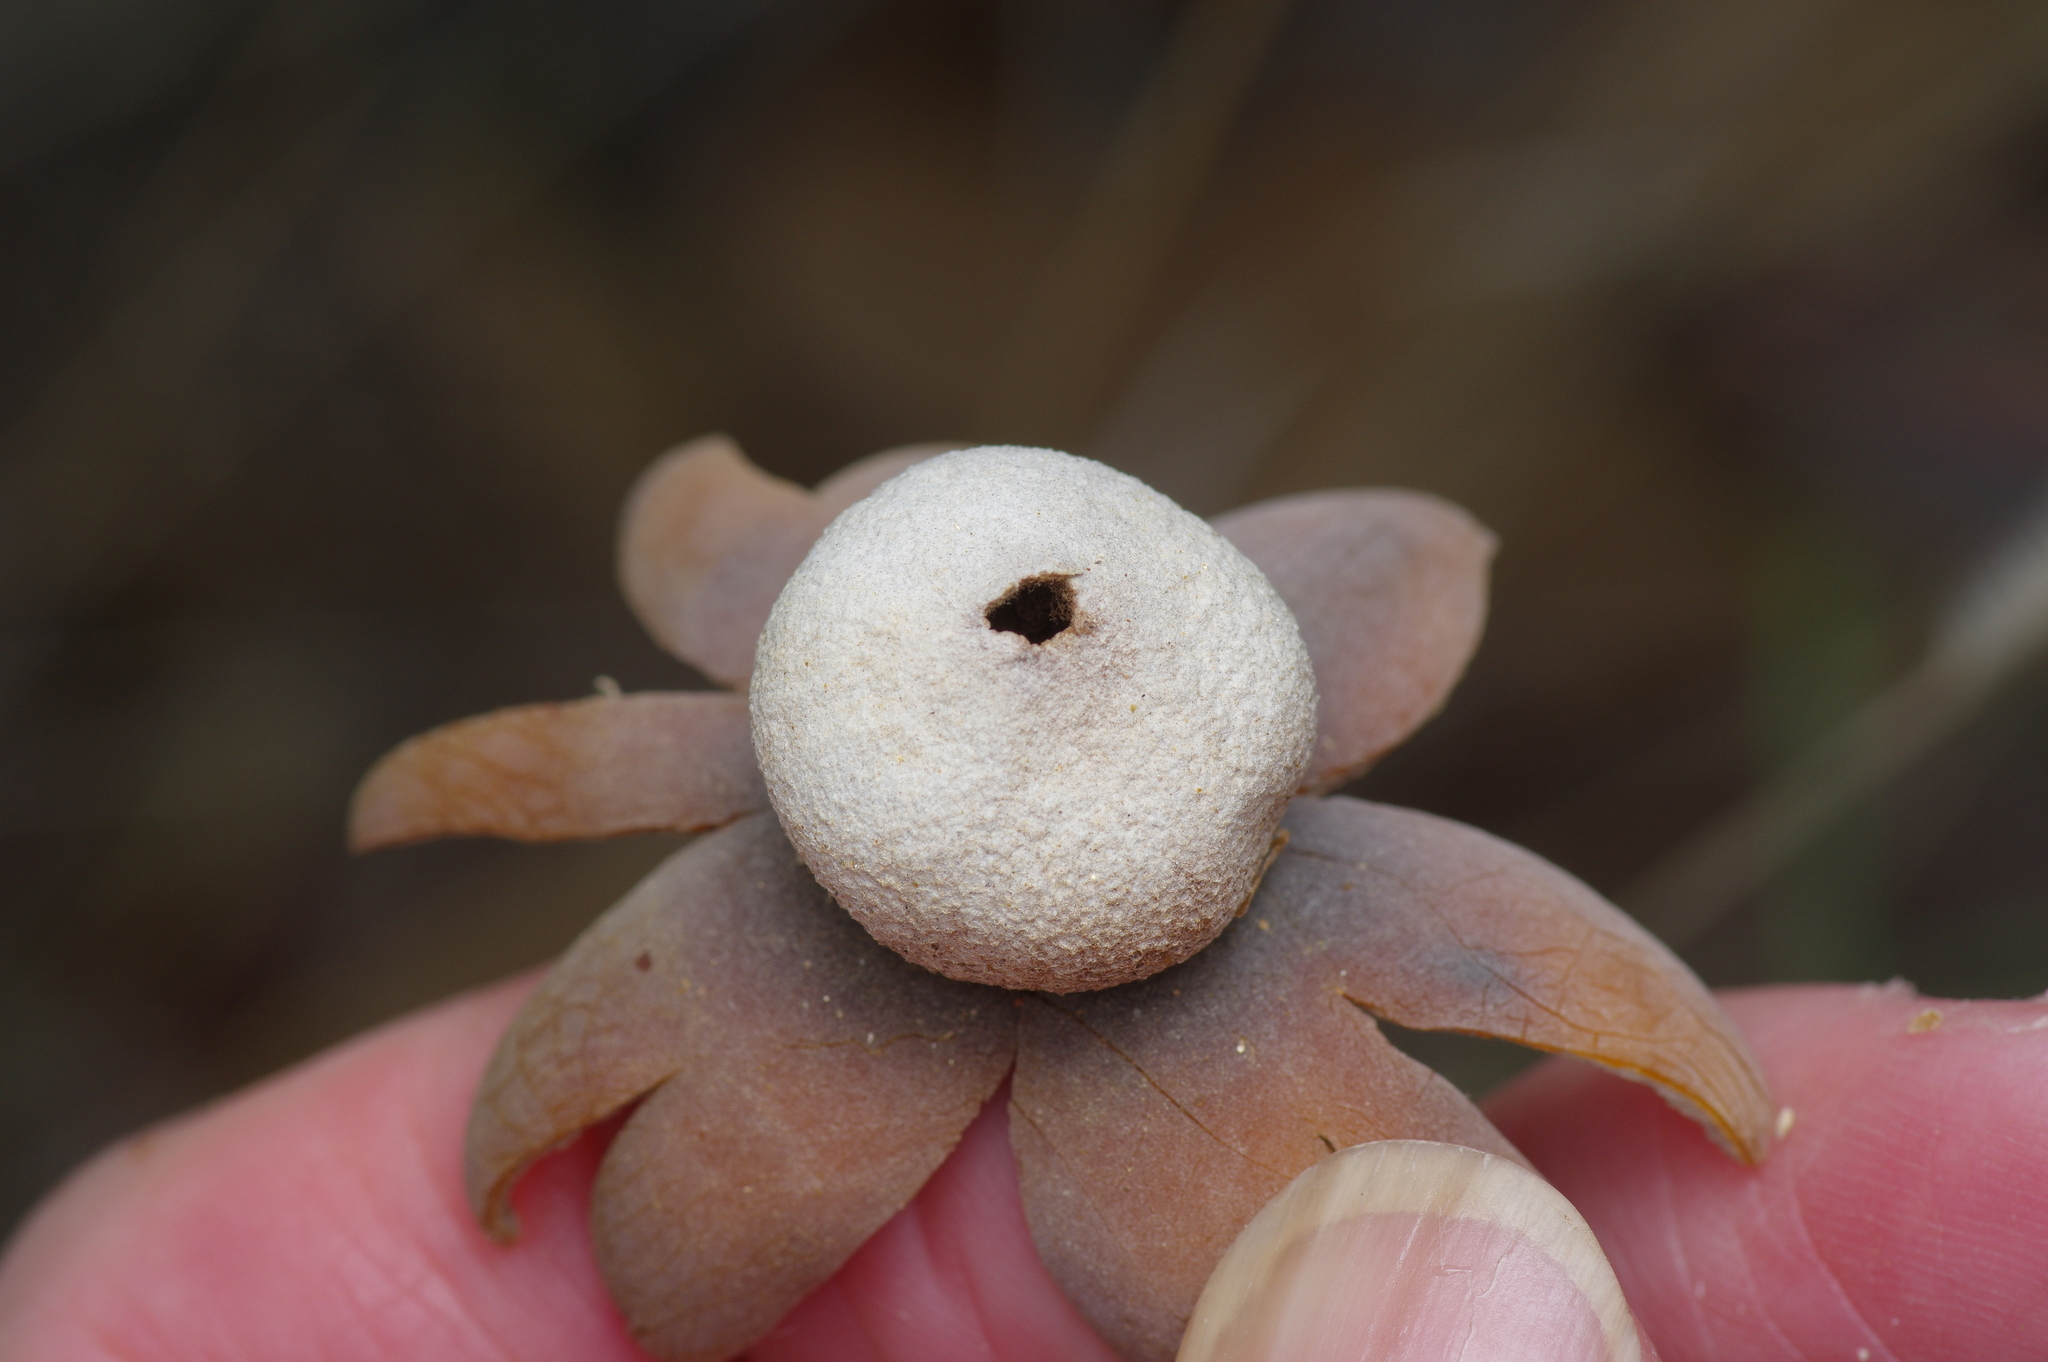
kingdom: Fungi
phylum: Basidiomycota
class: Agaricomycetes
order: Boletales
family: Diplocystidiaceae
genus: Astraeus
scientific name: Astraeus morganii
